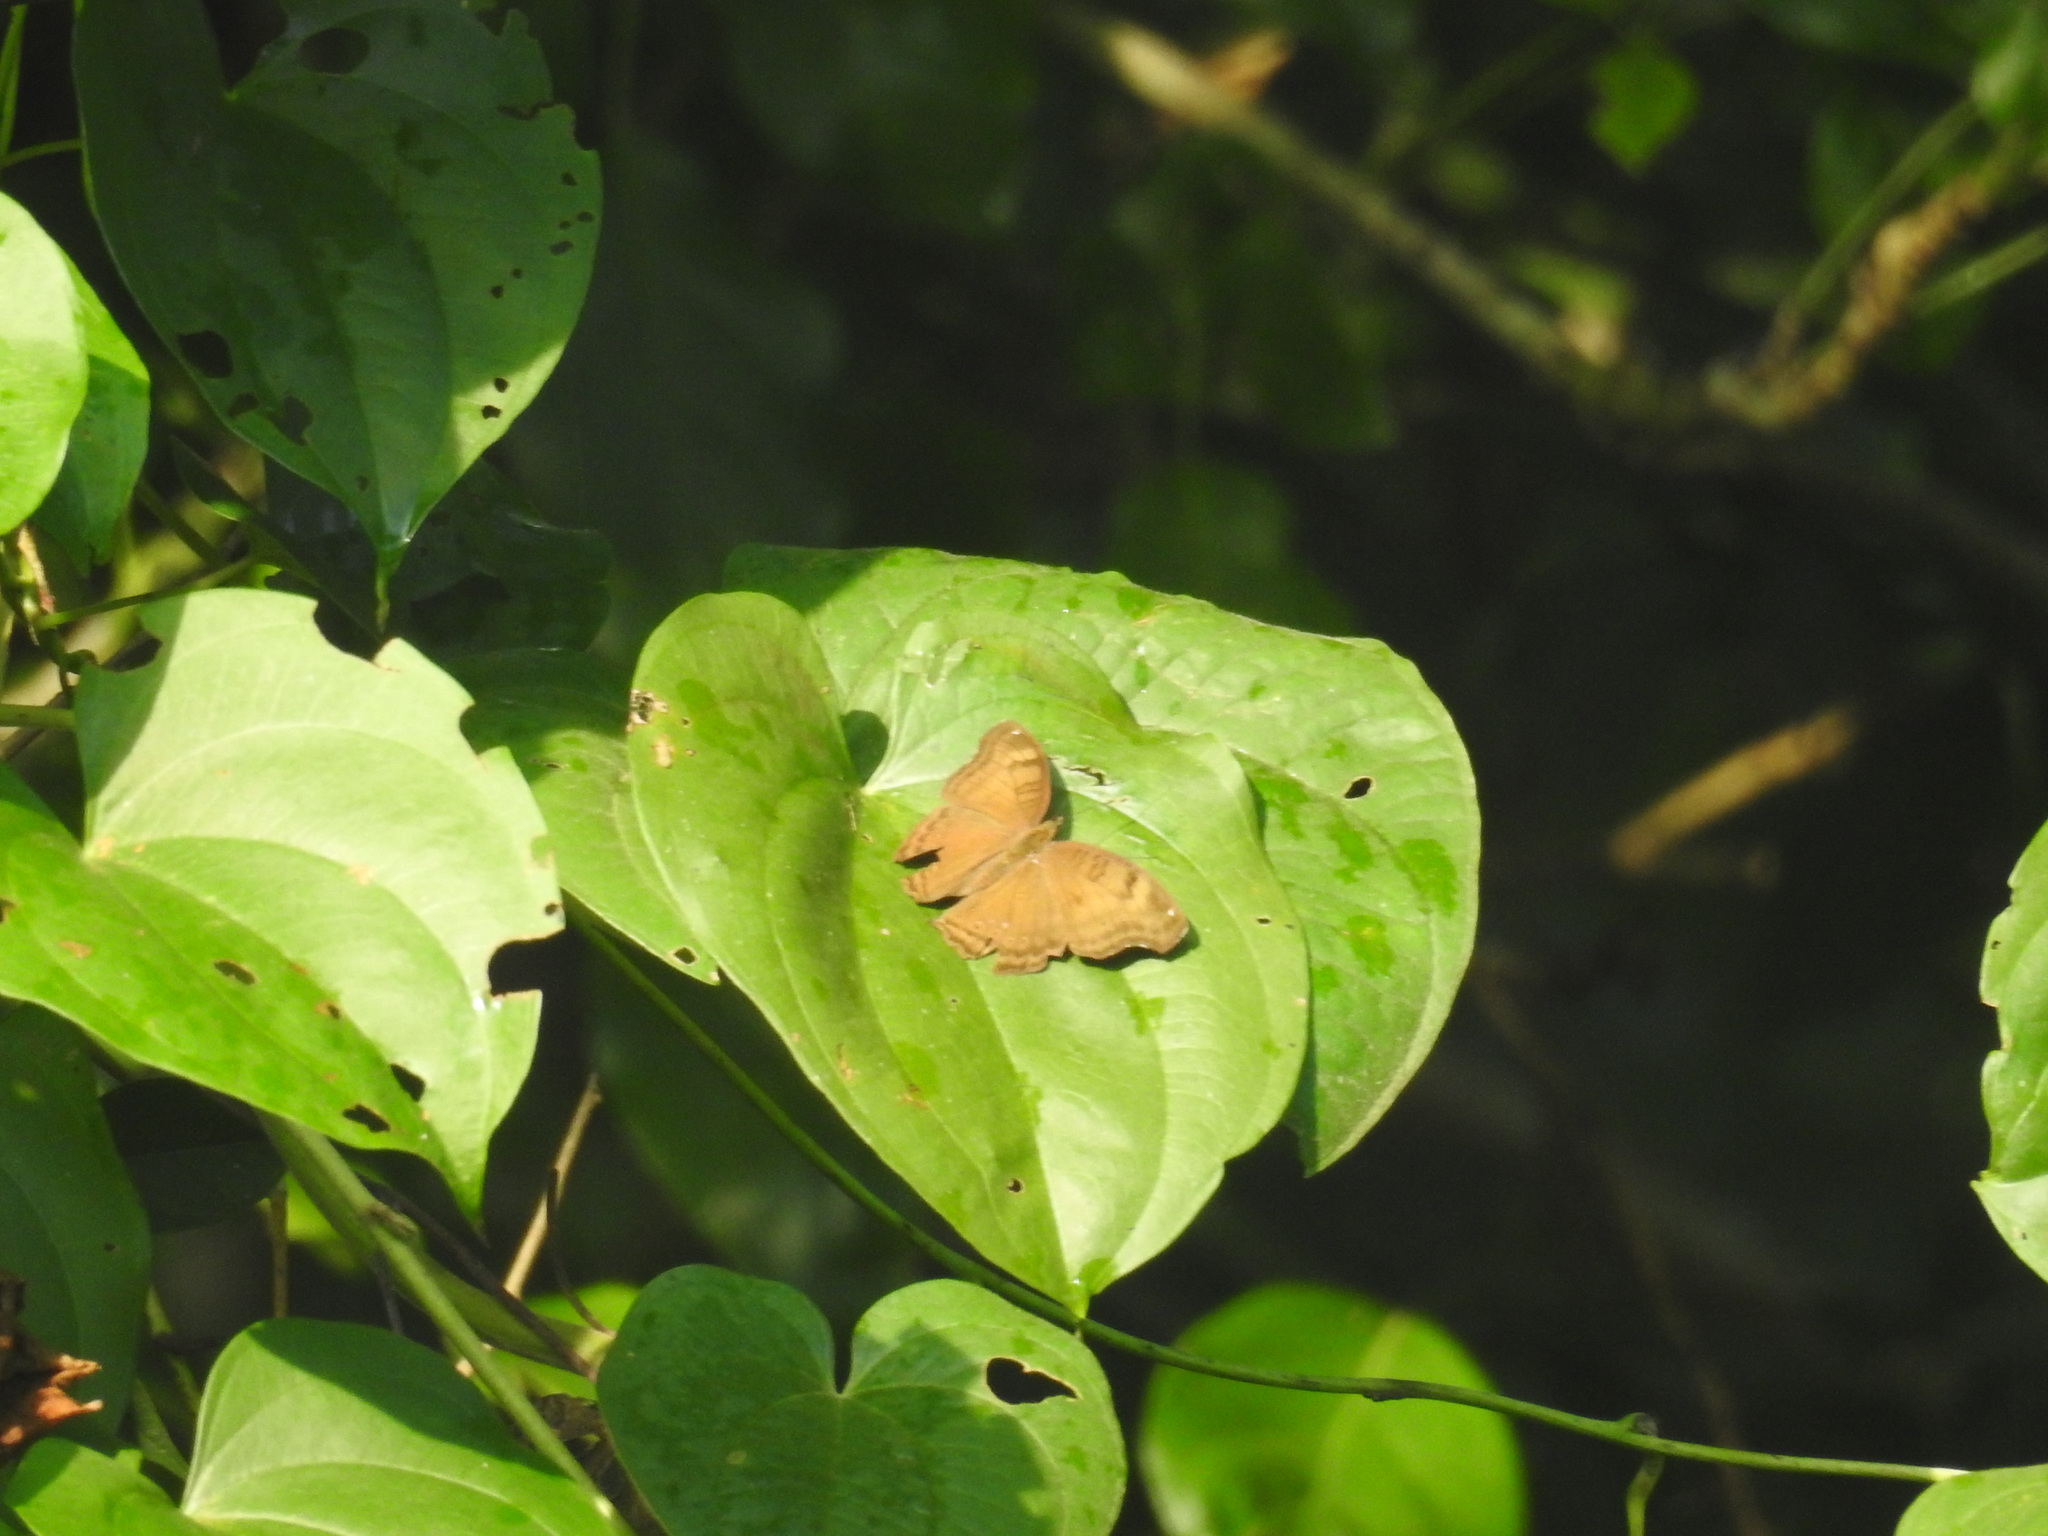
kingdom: Animalia
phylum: Arthropoda
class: Insecta
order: Lepidoptera
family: Nymphalidae
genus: Junonia
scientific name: Junonia iphita
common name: Chocolate pansy
